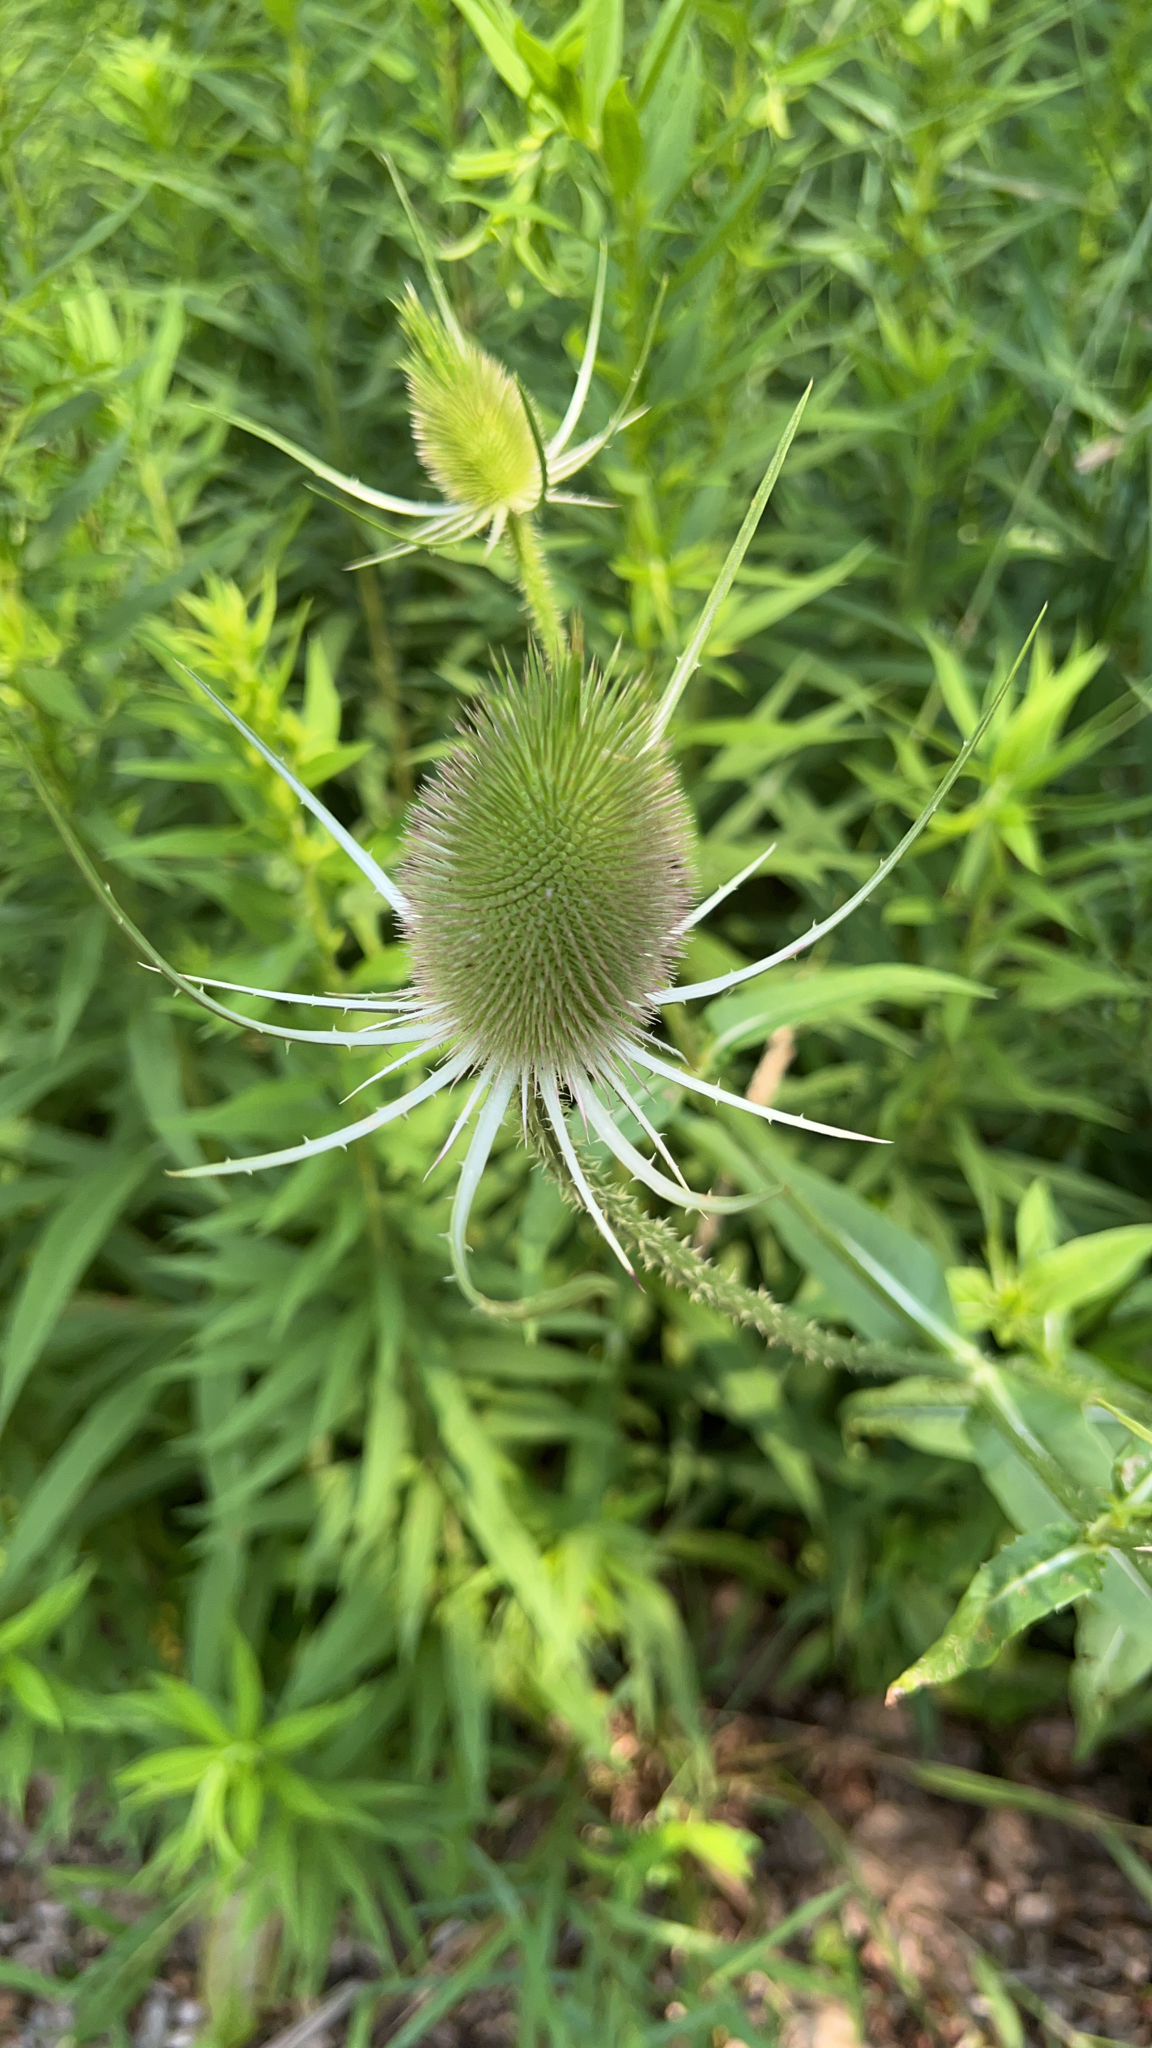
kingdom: Plantae
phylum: Tracheophyta
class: Magnoliopsida
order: Dipsacales
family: Caprifoliaceae
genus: Dipsacus
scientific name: Dipsacus fullonum
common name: Teasel
